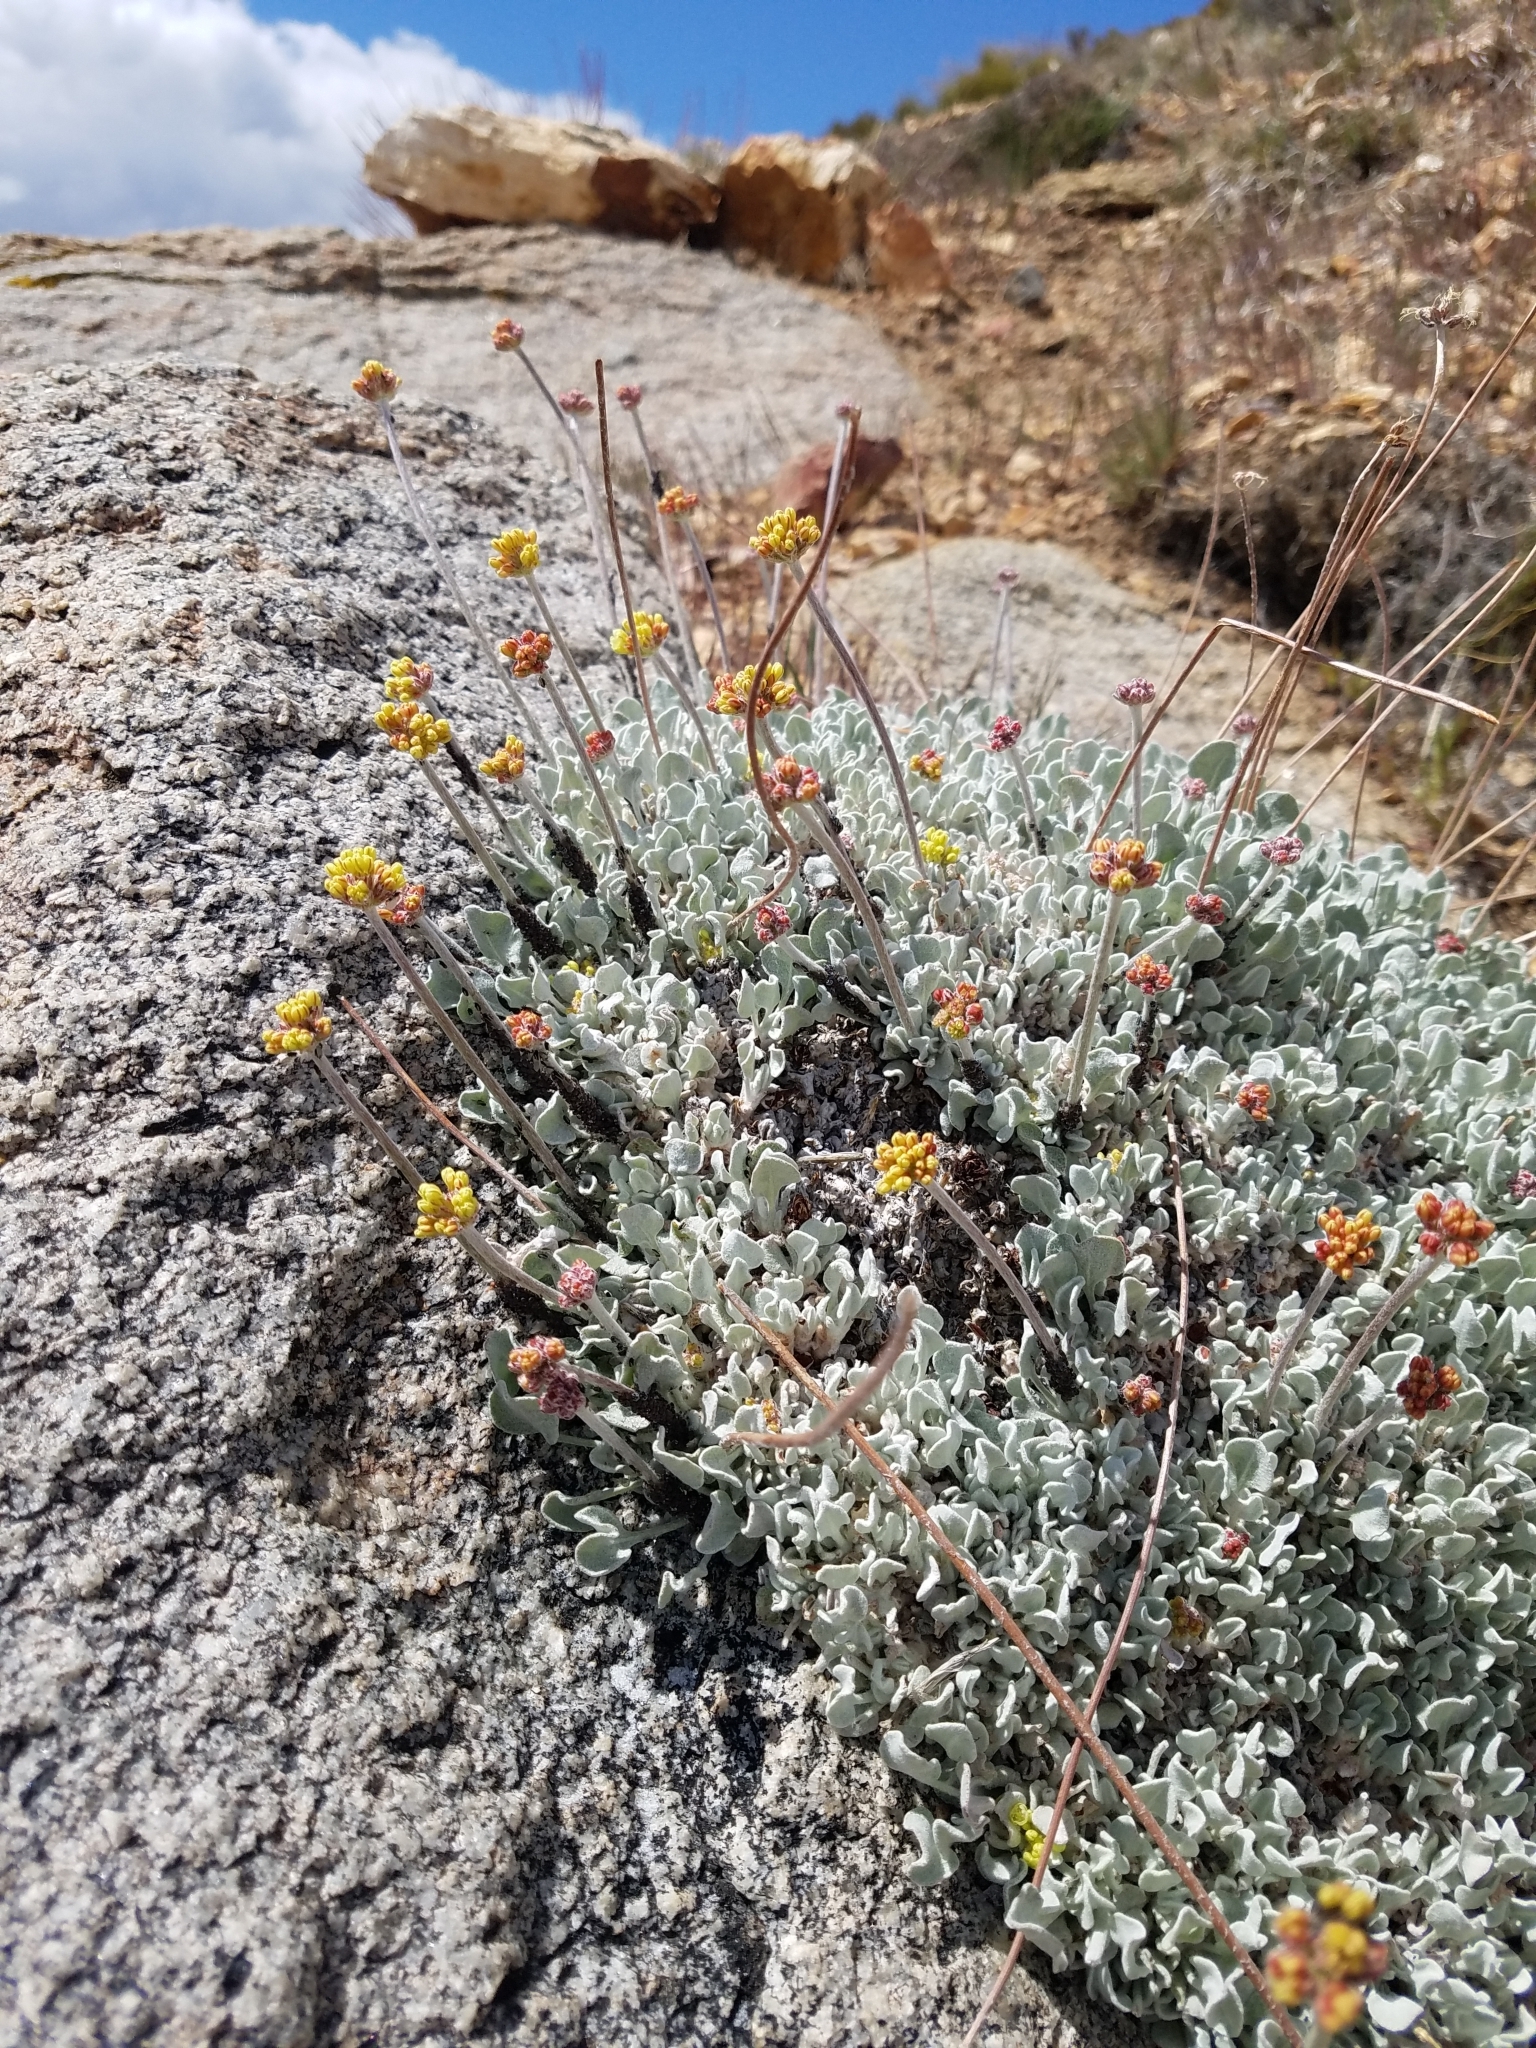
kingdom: Plantae
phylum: Tracheophyta
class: Magnoliopsida
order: Caryophyllales
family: Polygonaceae
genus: Eriogonum
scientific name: Eriogonum ovalifolium
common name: Cushion buckwheat
